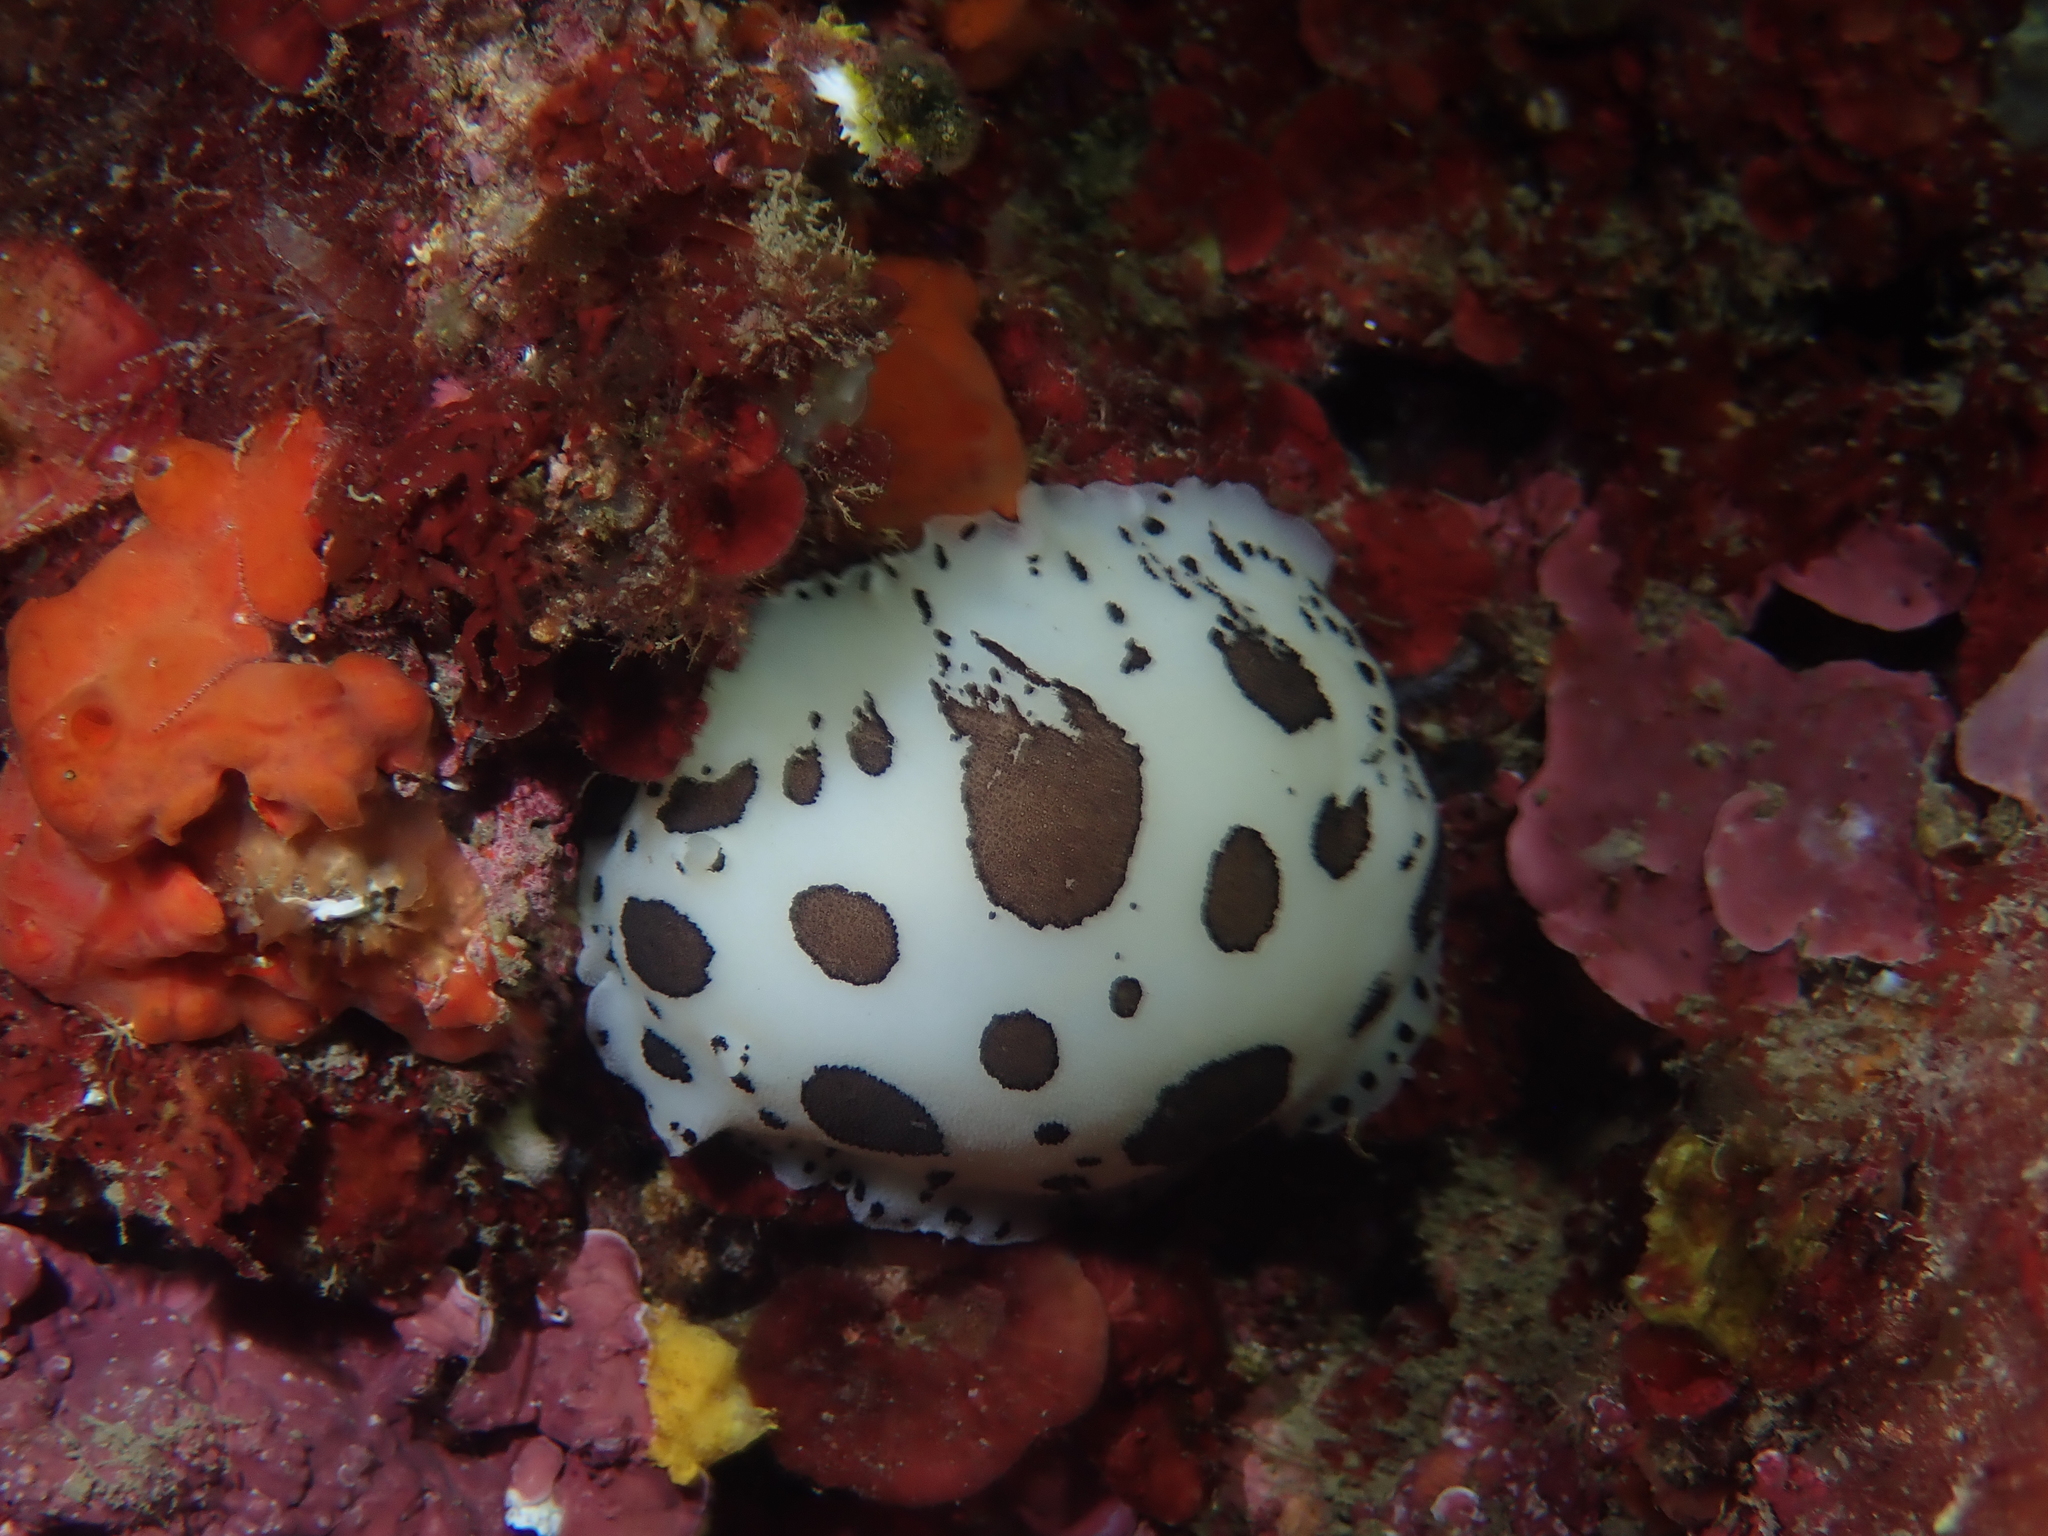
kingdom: Animalia
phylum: Mollusca
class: Gastropoda
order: Nudibranchia
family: Discodorididae
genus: Peltodoris
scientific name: Peltodoris atromaculata
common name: Swiss cow nudibranch
